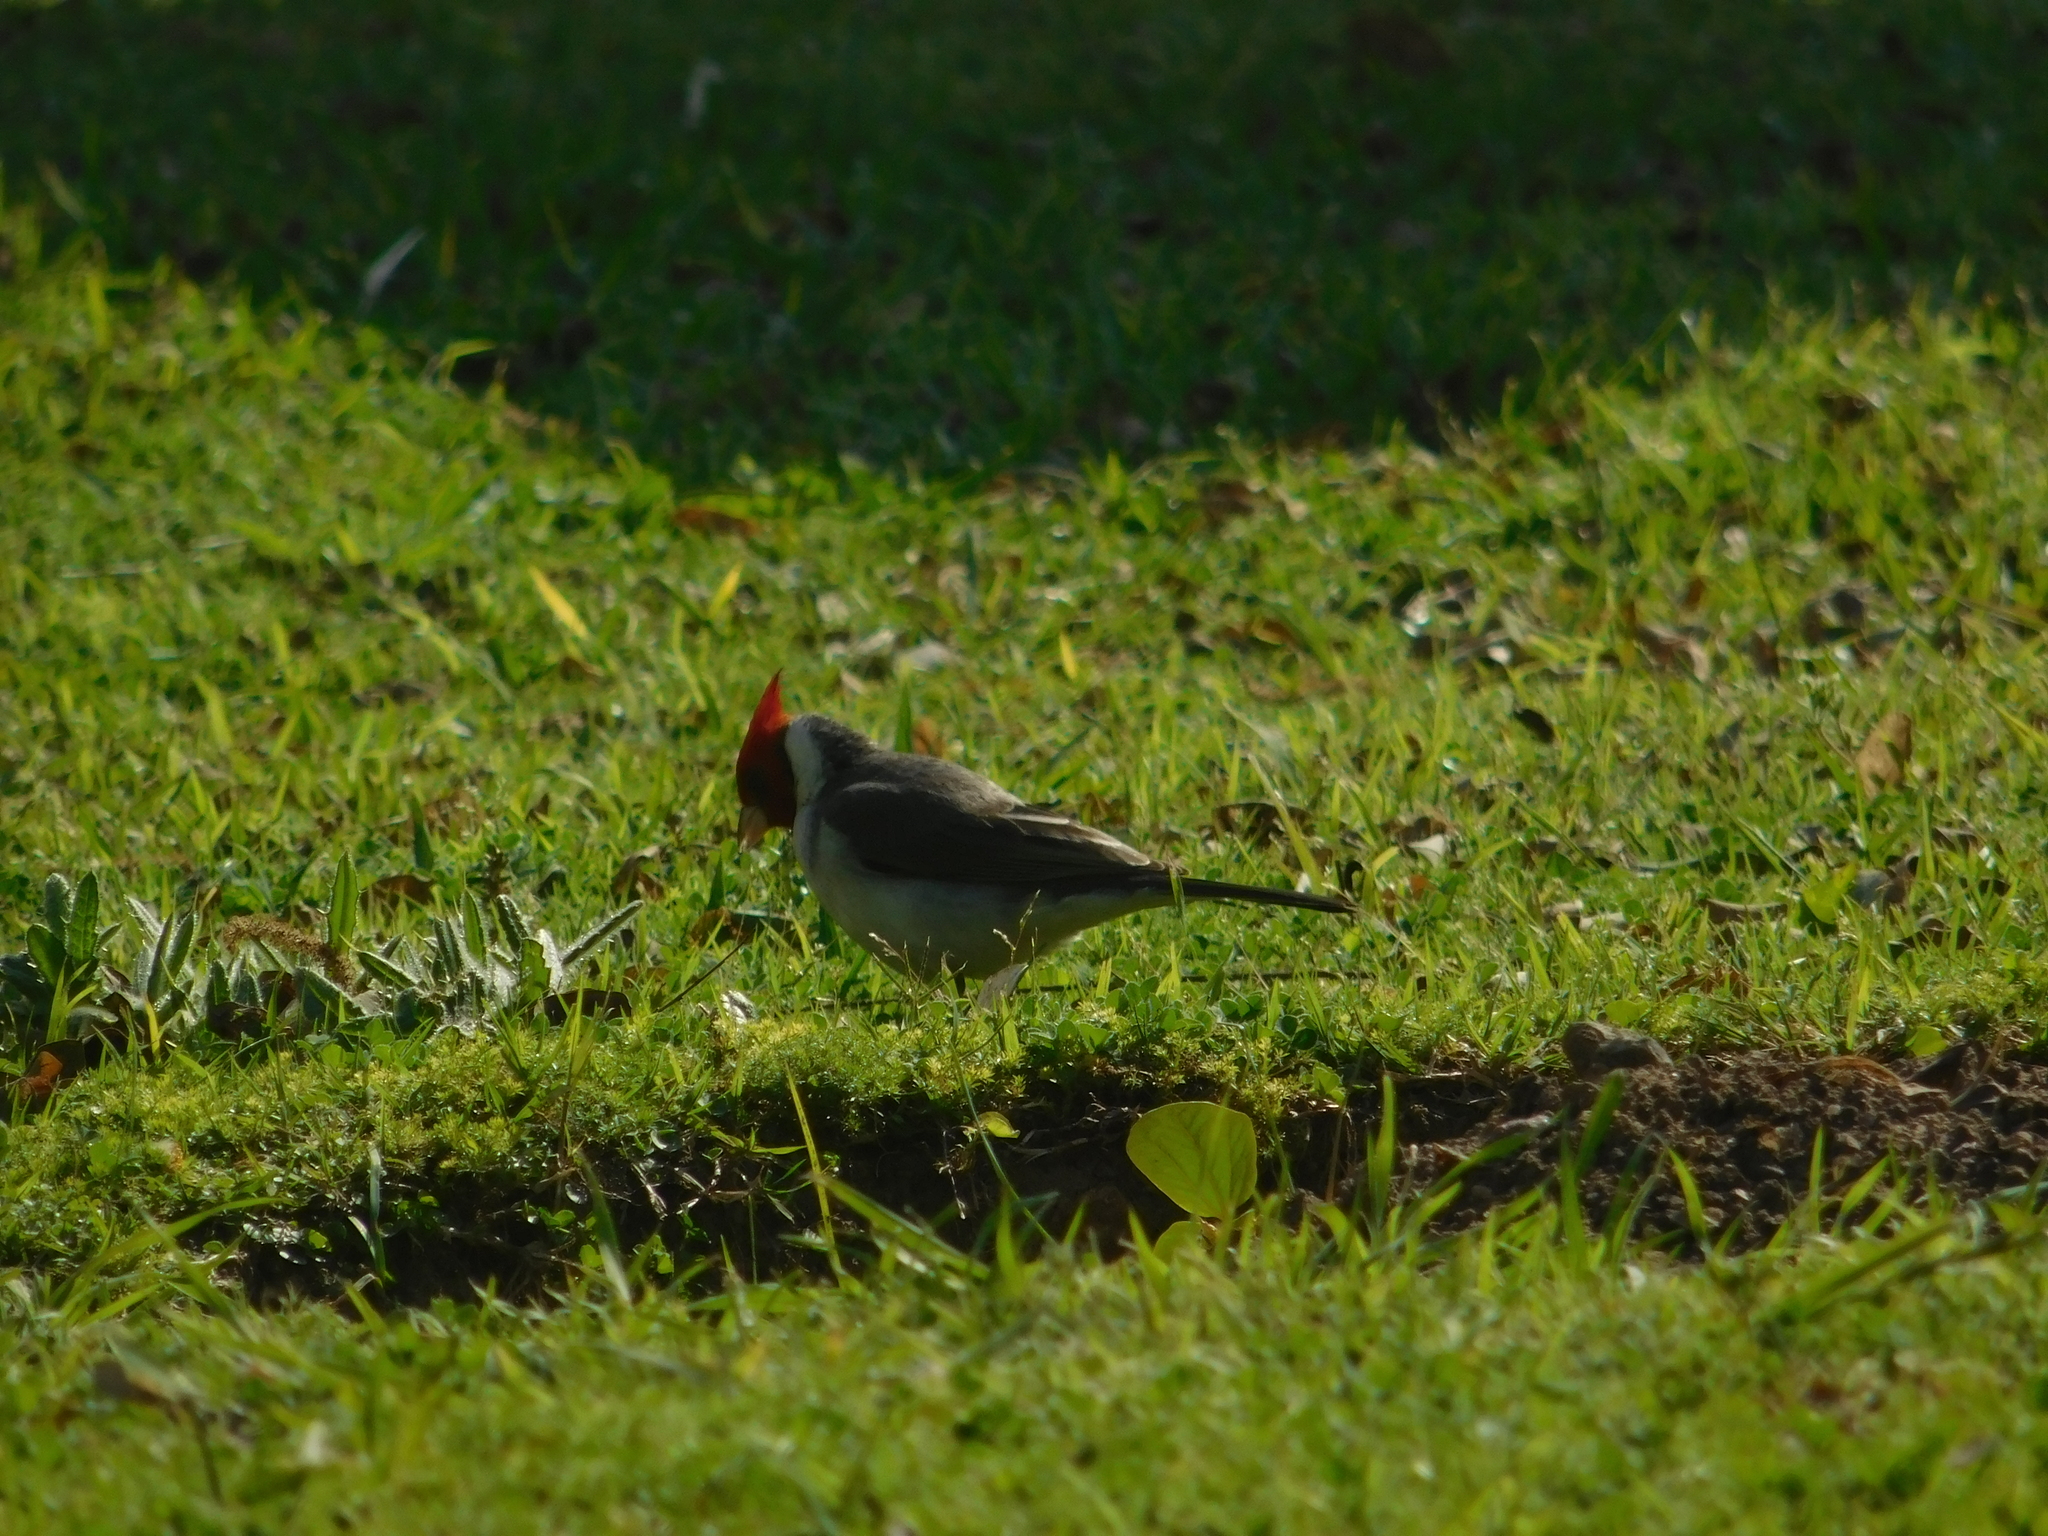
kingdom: Animalia
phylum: Chordata
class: Aves
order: Passeriformes
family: Thraupidae
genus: Paroaria
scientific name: Paroaria coronata
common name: Red-crested cardinal
